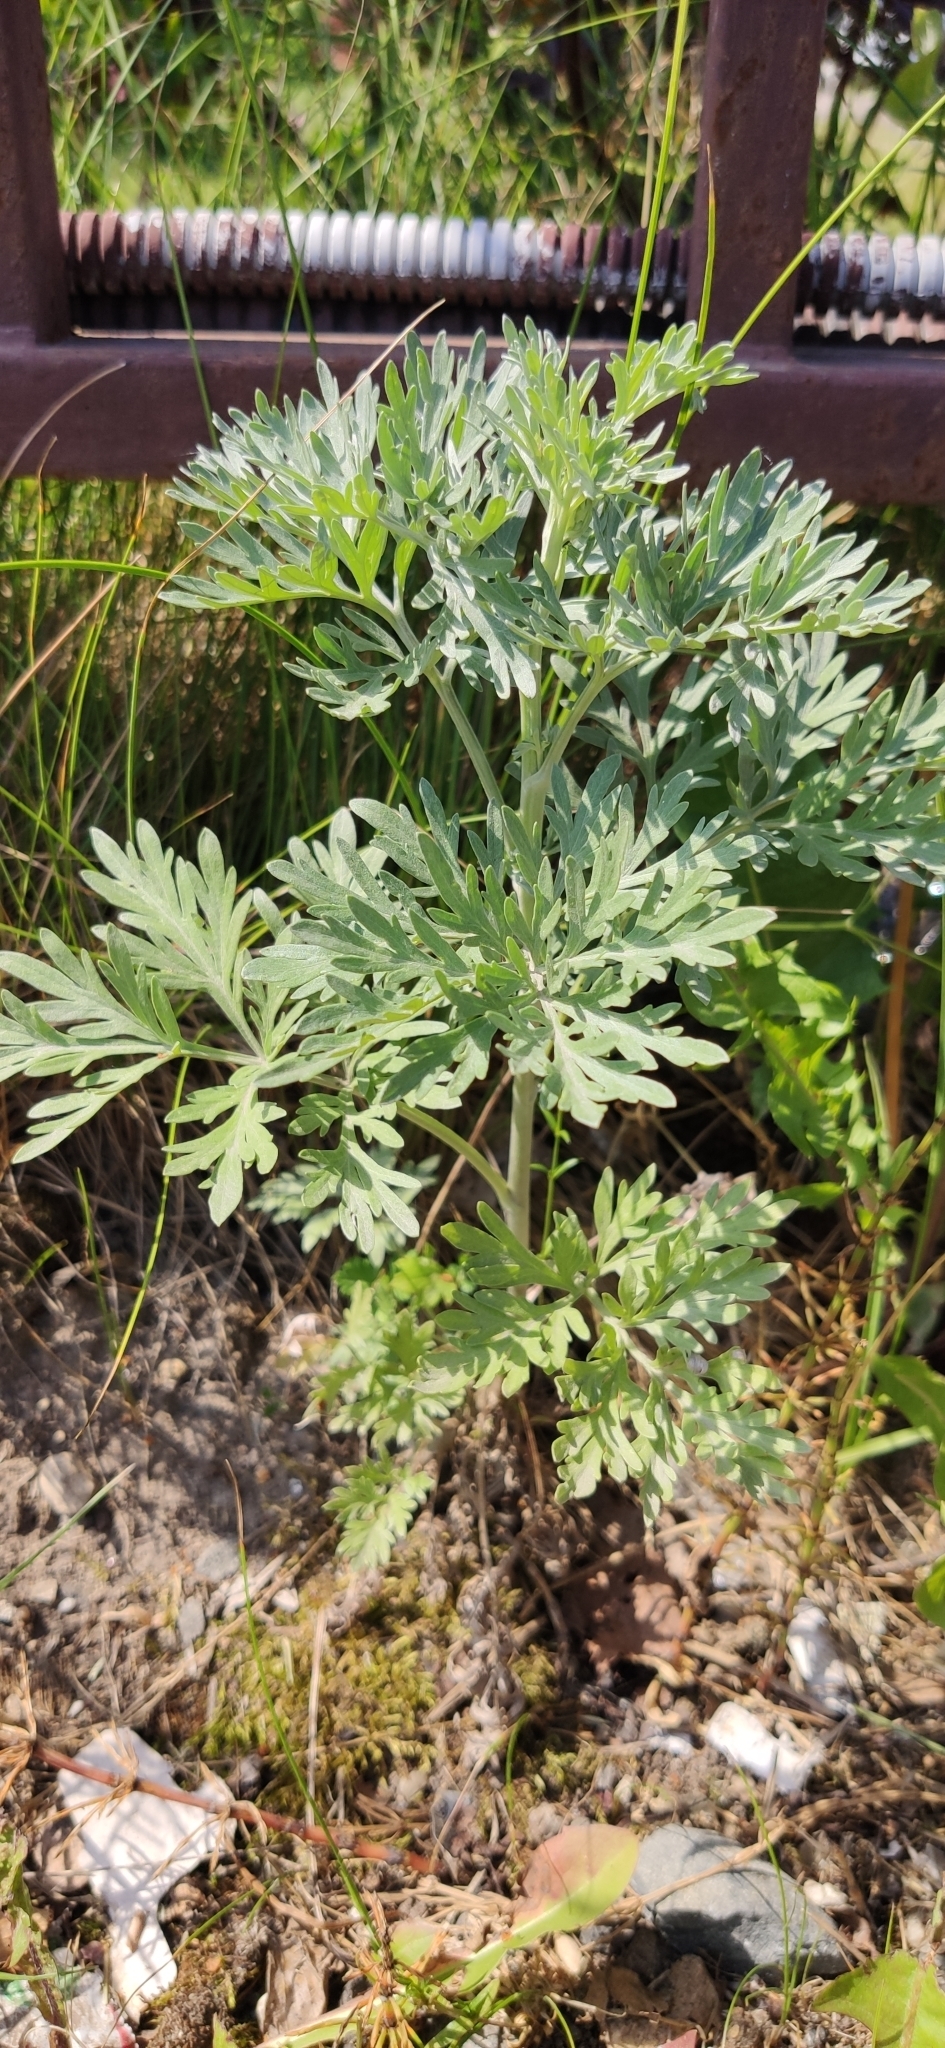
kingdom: Plantae
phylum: Tracheophyta
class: Magnoliopsida
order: Asterales
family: Asteraceae
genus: Artemisia
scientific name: Artemisia absinthium
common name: Wormwood
